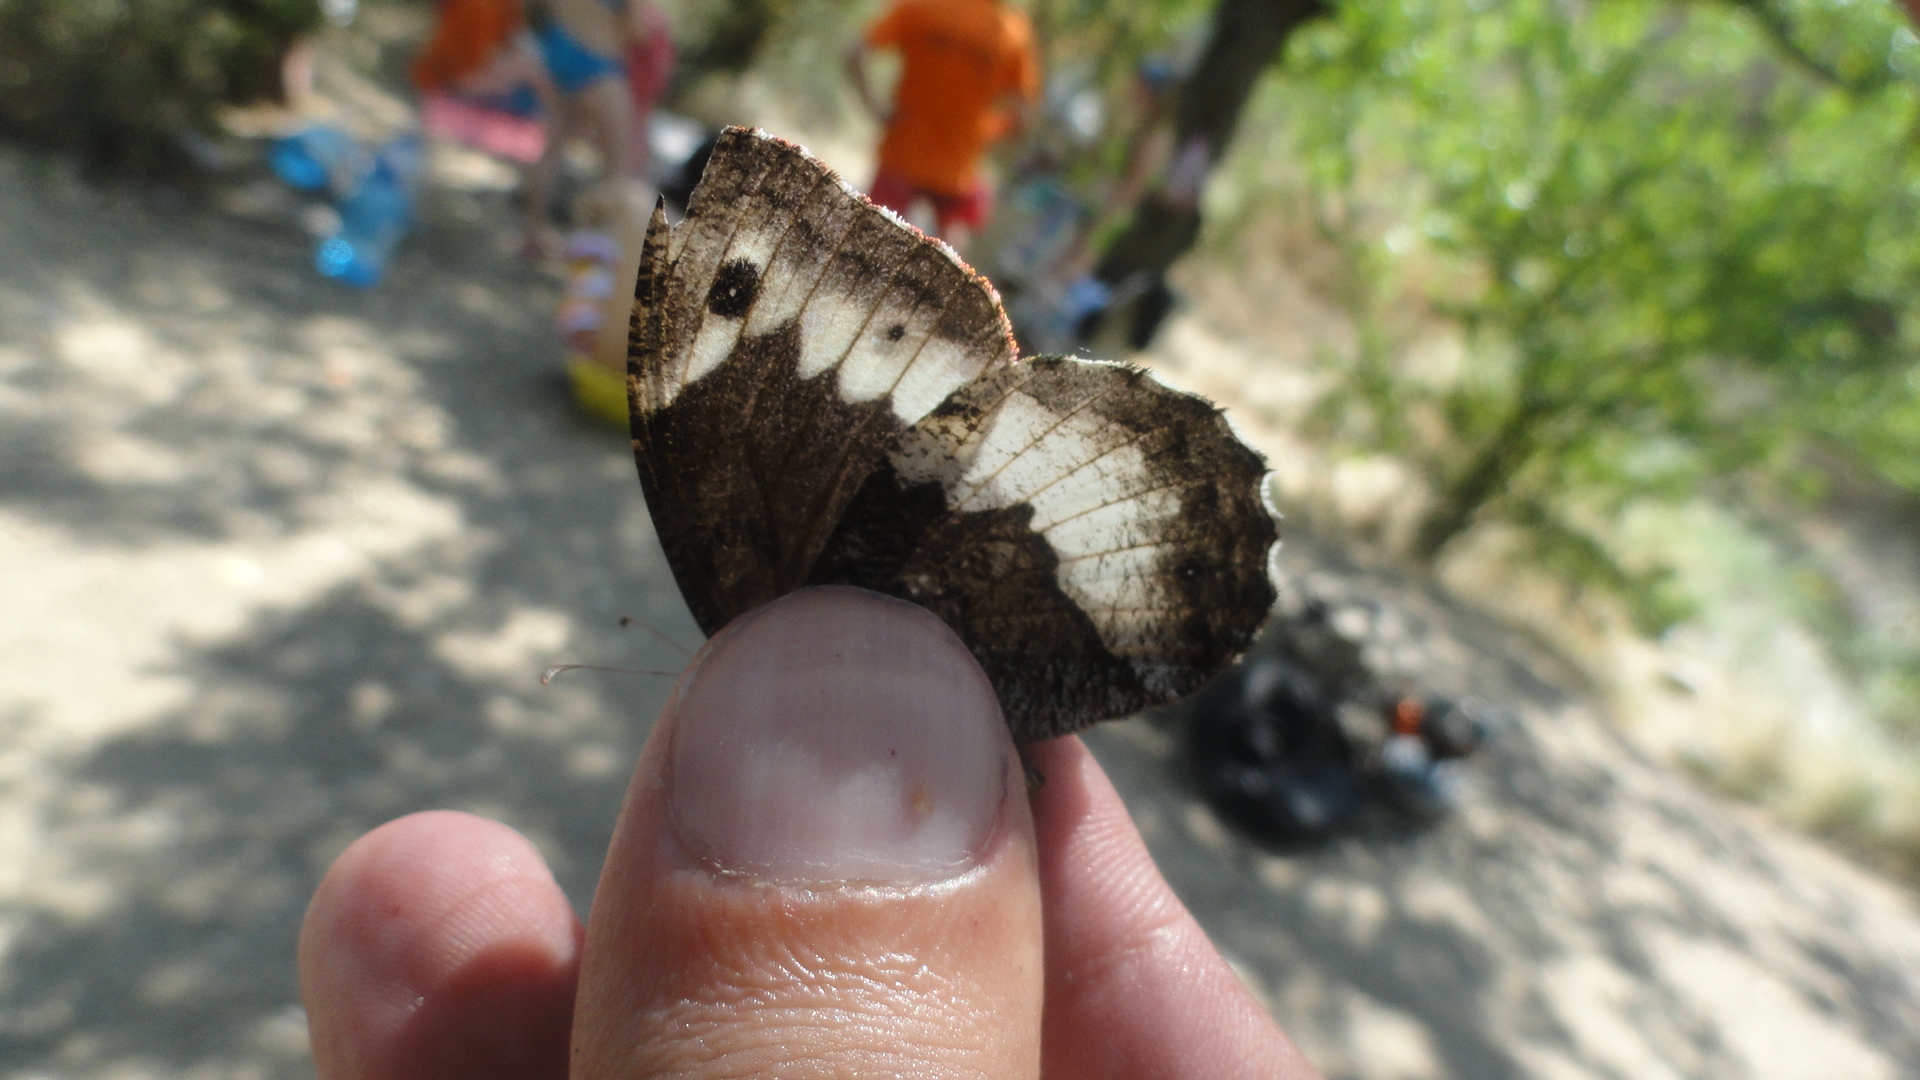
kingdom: Animalia
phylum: Arthropoda
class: Insecta
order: Lepidoptera
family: Nymphalidae
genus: Hipparchia
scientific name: Hipparchia fagi
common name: Woodland grayling
